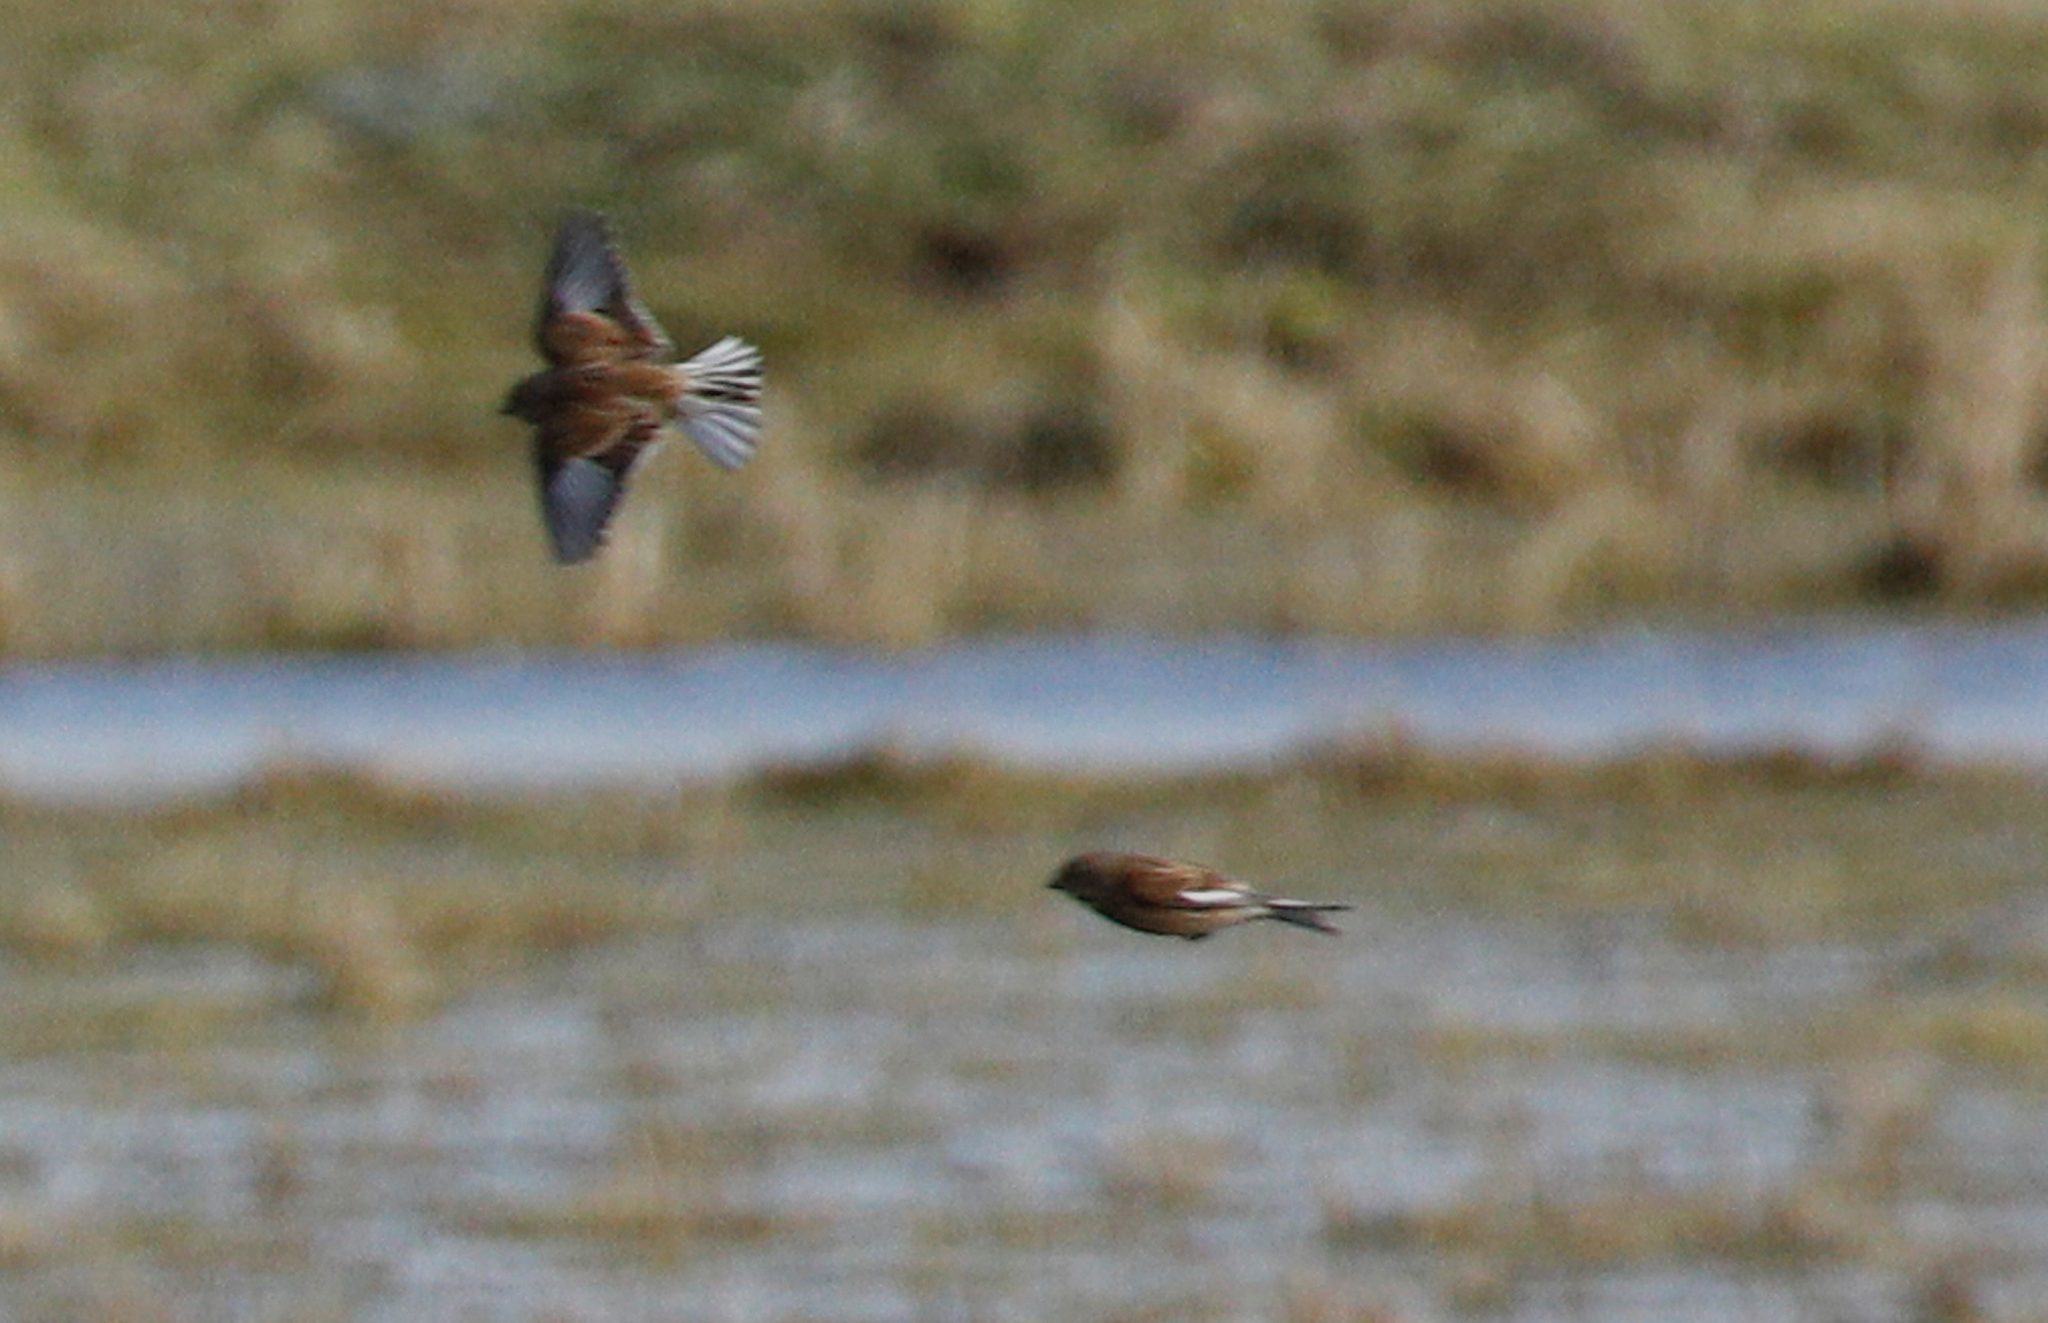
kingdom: Animalia
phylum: Chordata
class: Aves
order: Passeriformes
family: Fringillidae
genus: Linaria
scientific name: Linaria flavirostris
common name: Twite
